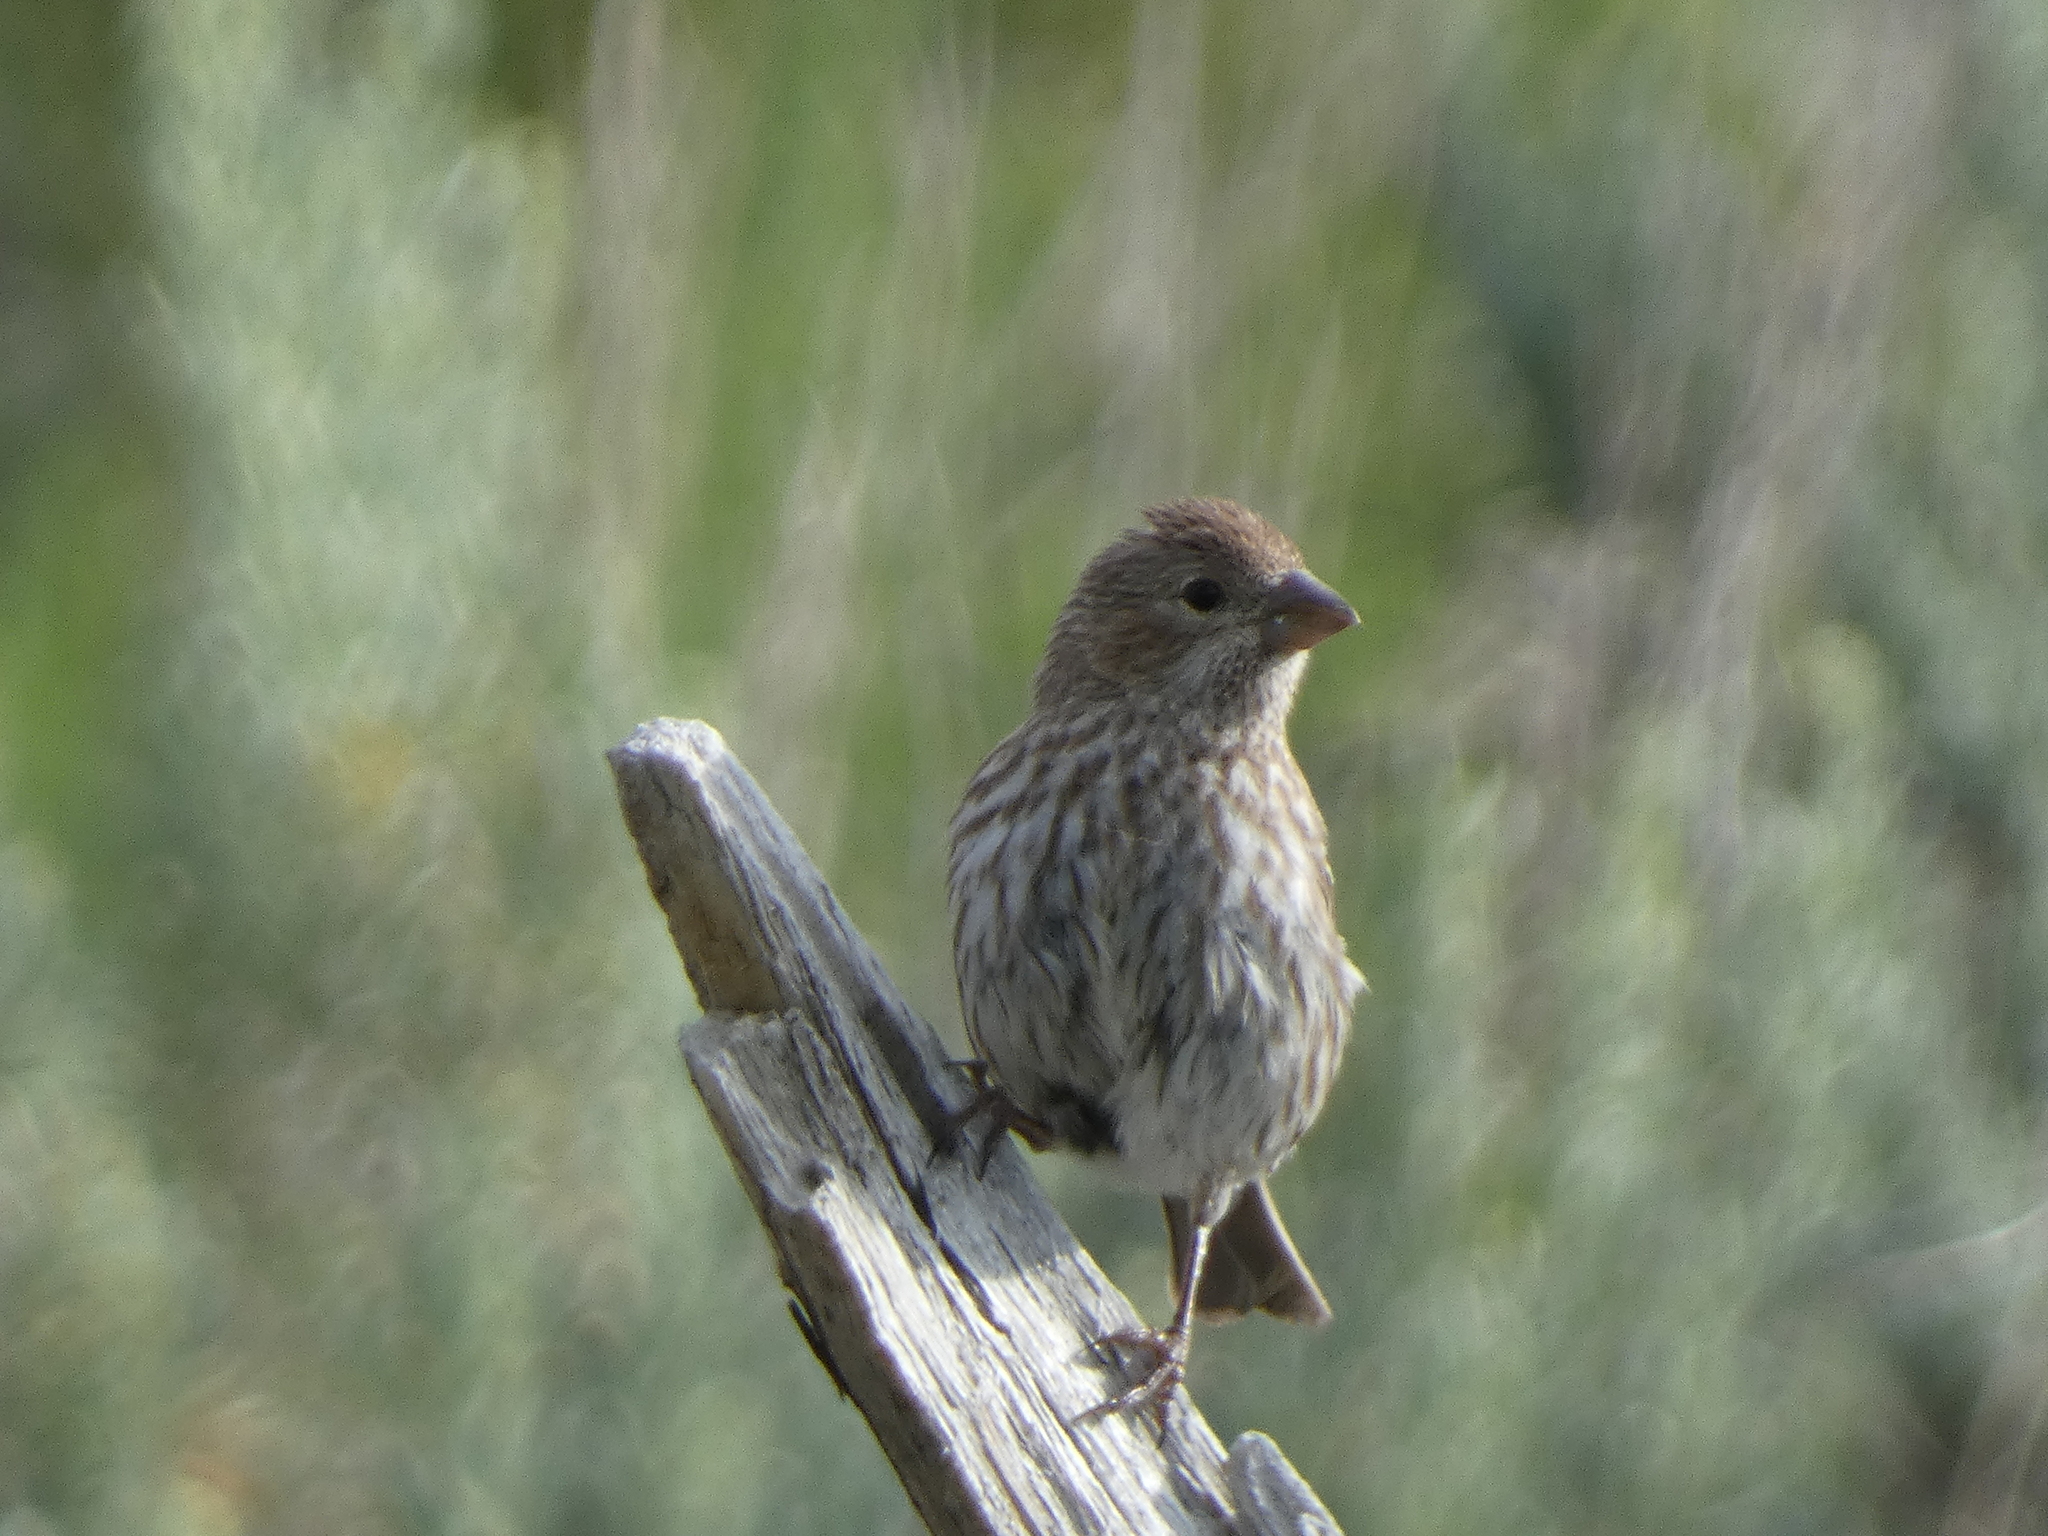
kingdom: Animalia
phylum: Chordata
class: Aves
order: Passeriformes
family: Fringillidae
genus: Haemorhous
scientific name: Haemorhous mexicanus
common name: House finch
